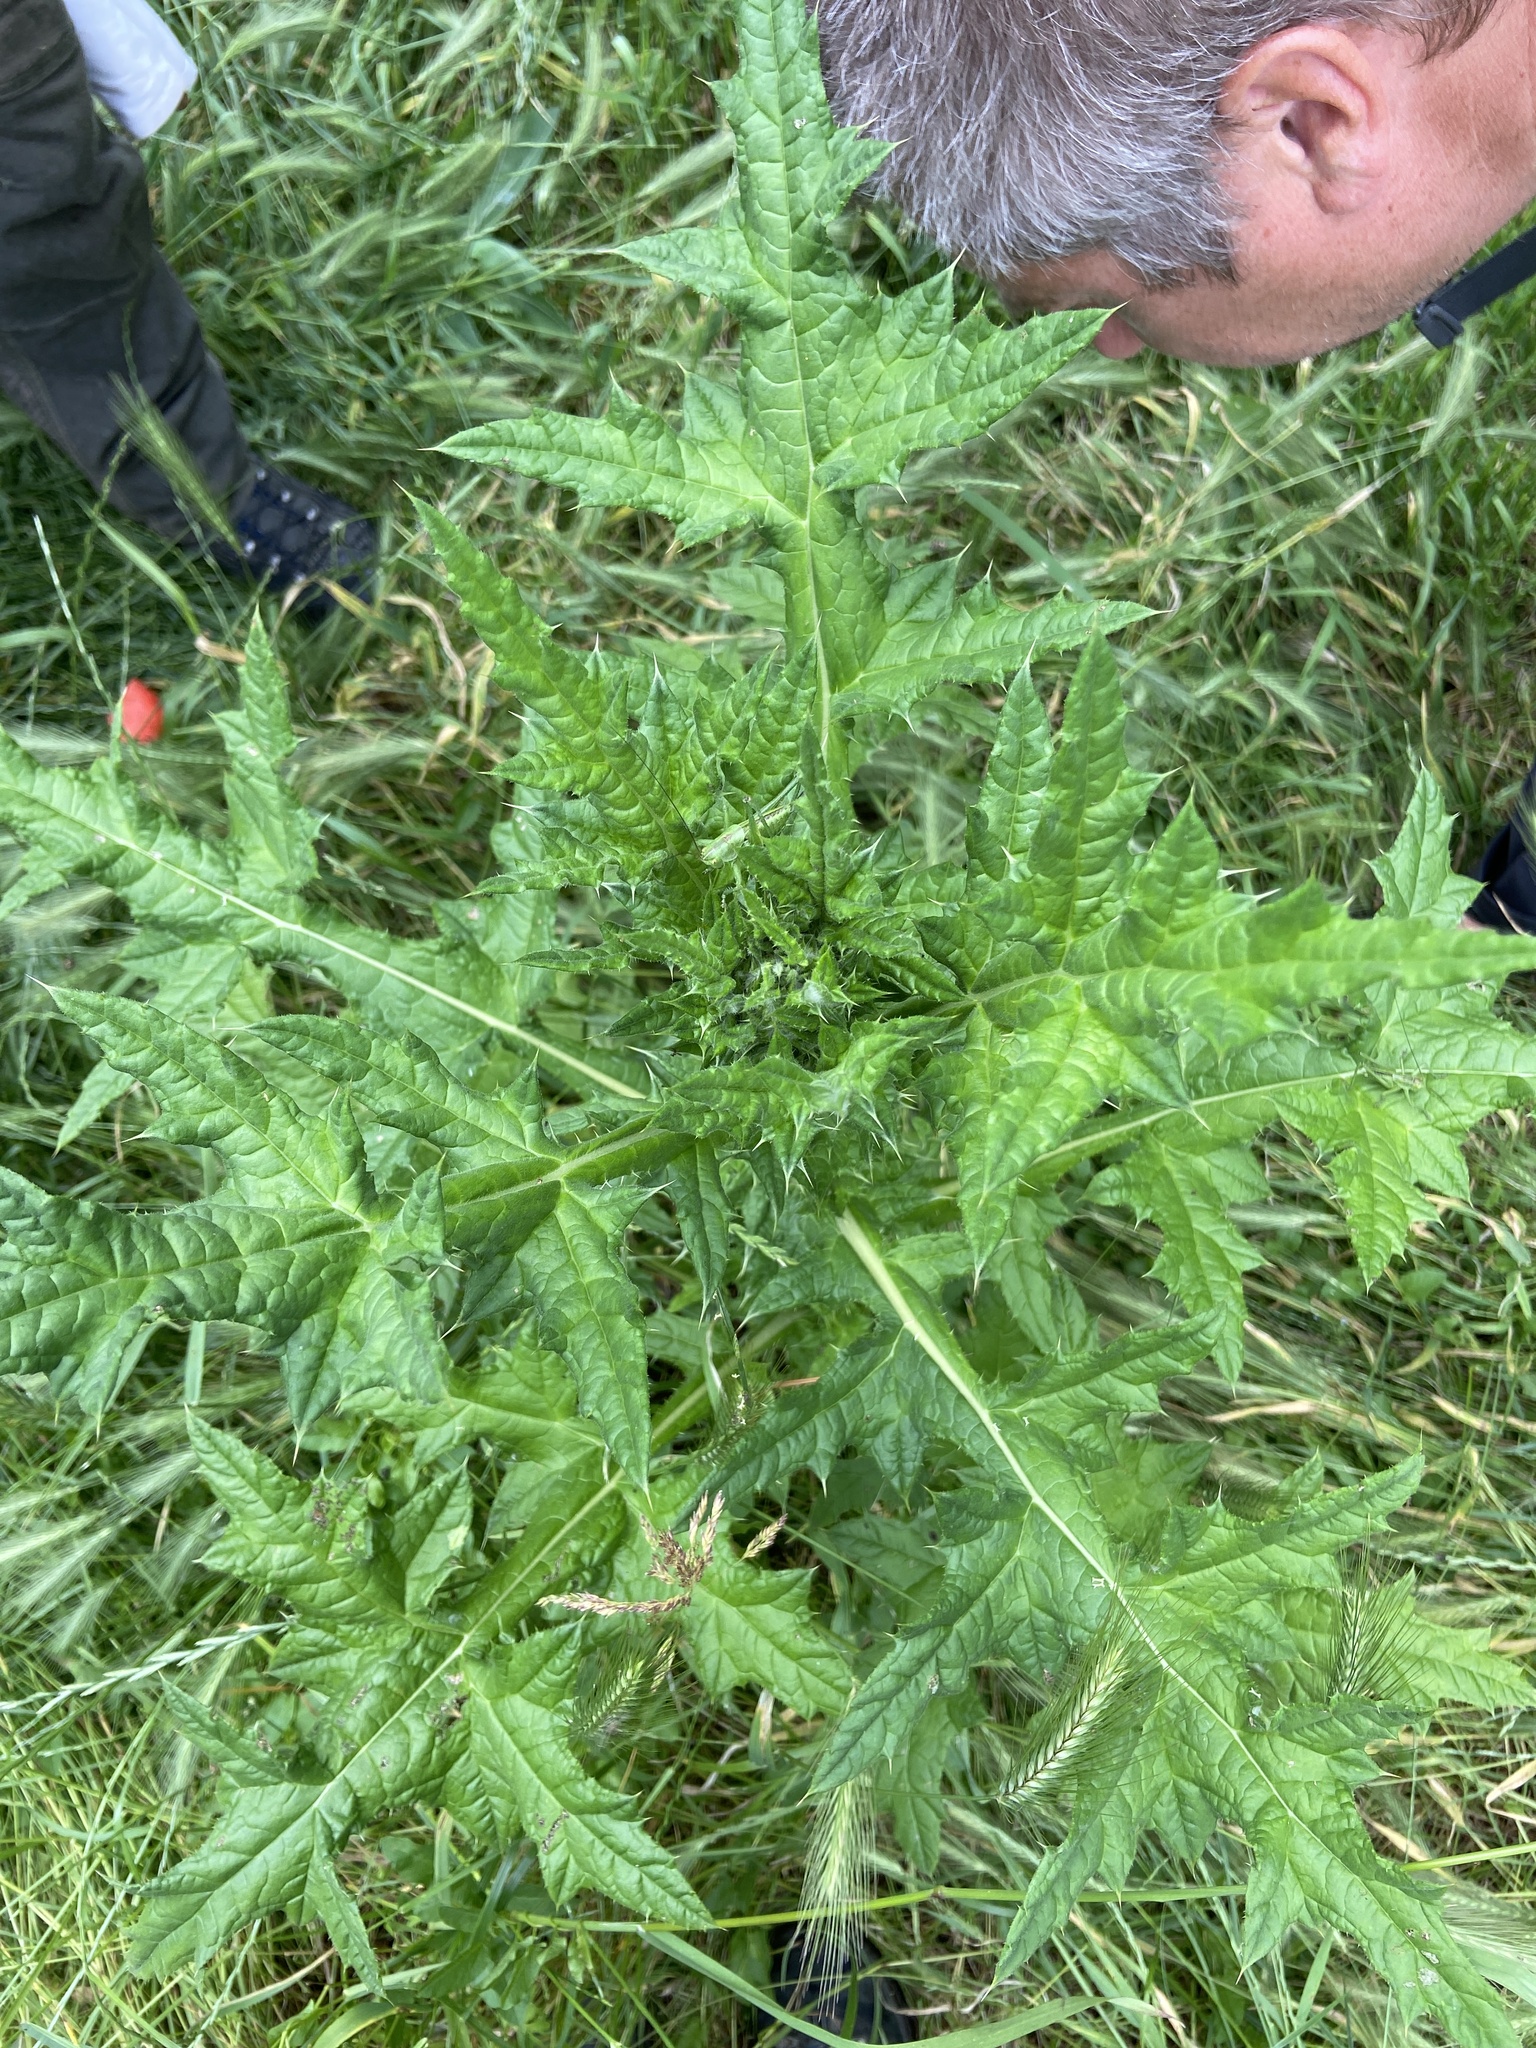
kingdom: Plantae
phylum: Tracheophyta
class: Magnoliopsida
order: Asterales
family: Asteraceae
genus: Echinops
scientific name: Echinops sphaerocephalus
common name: Glandular globe-thistle
